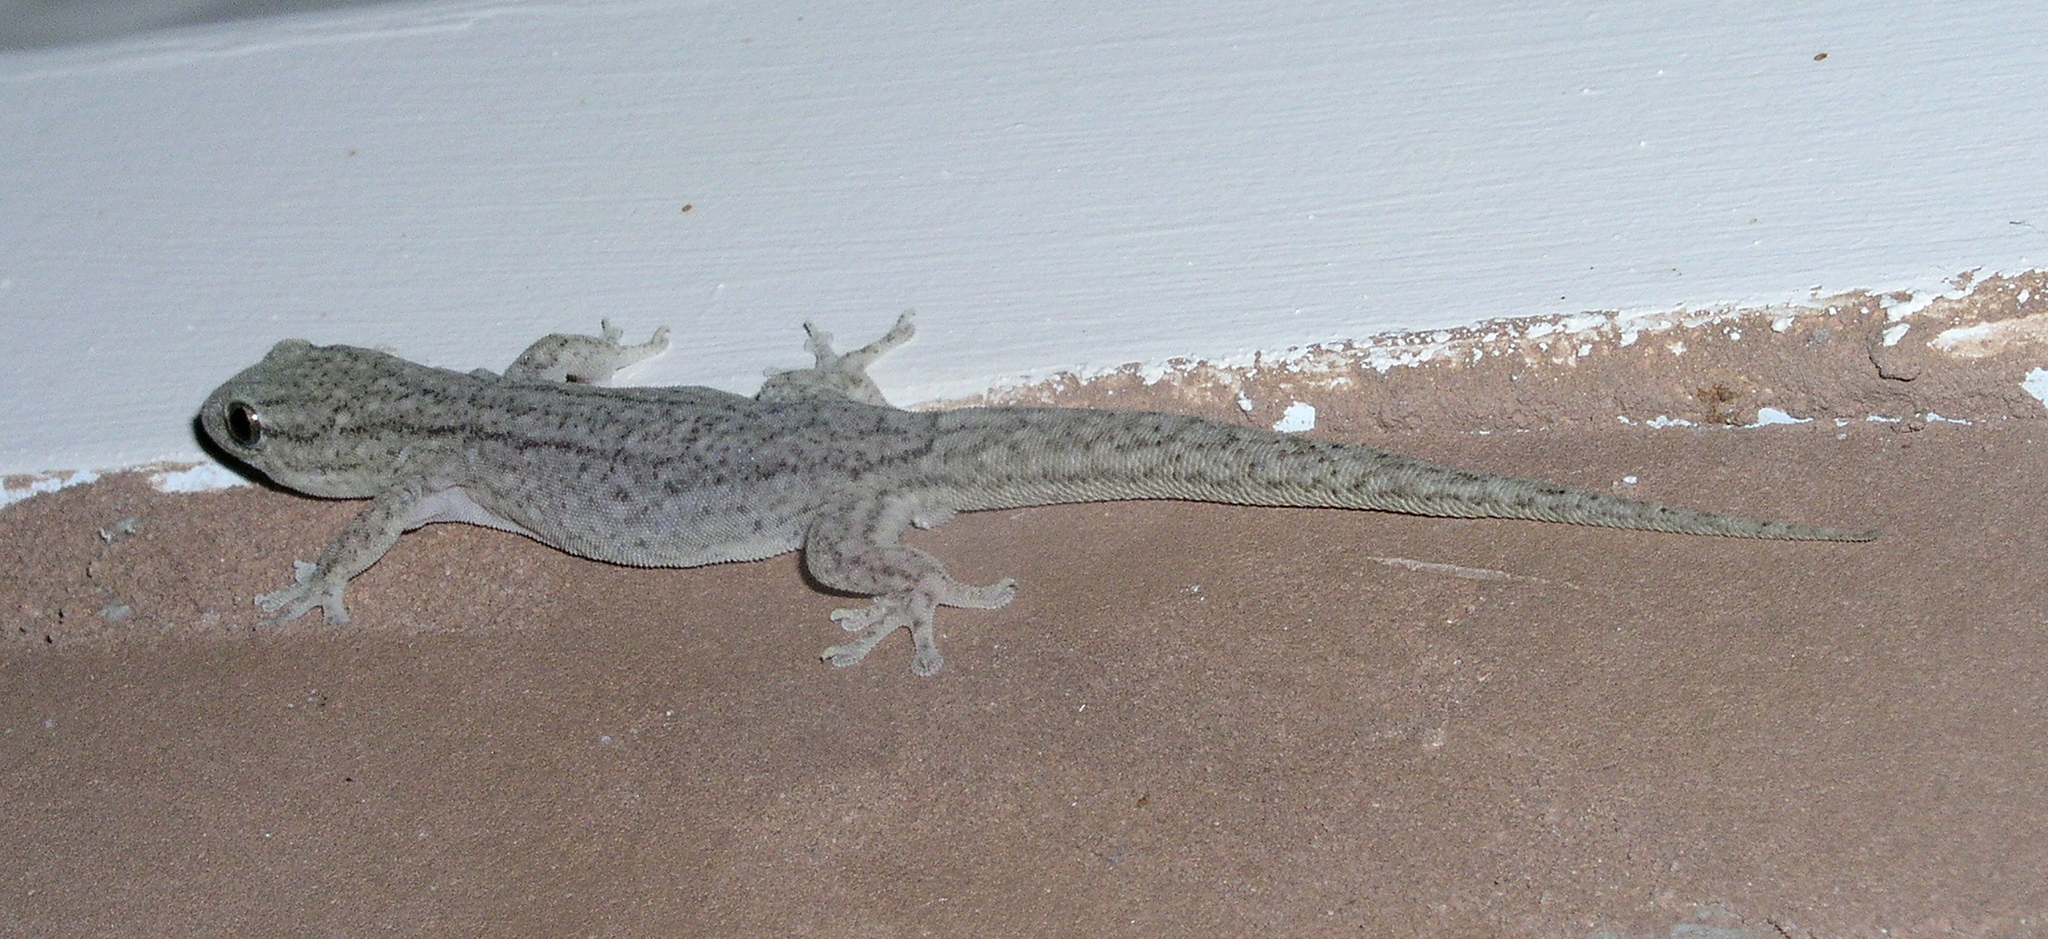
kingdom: Animalia
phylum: Chordata
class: Squamata
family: Gekkonidae
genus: Gehyra
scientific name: Gehyra versicolor
